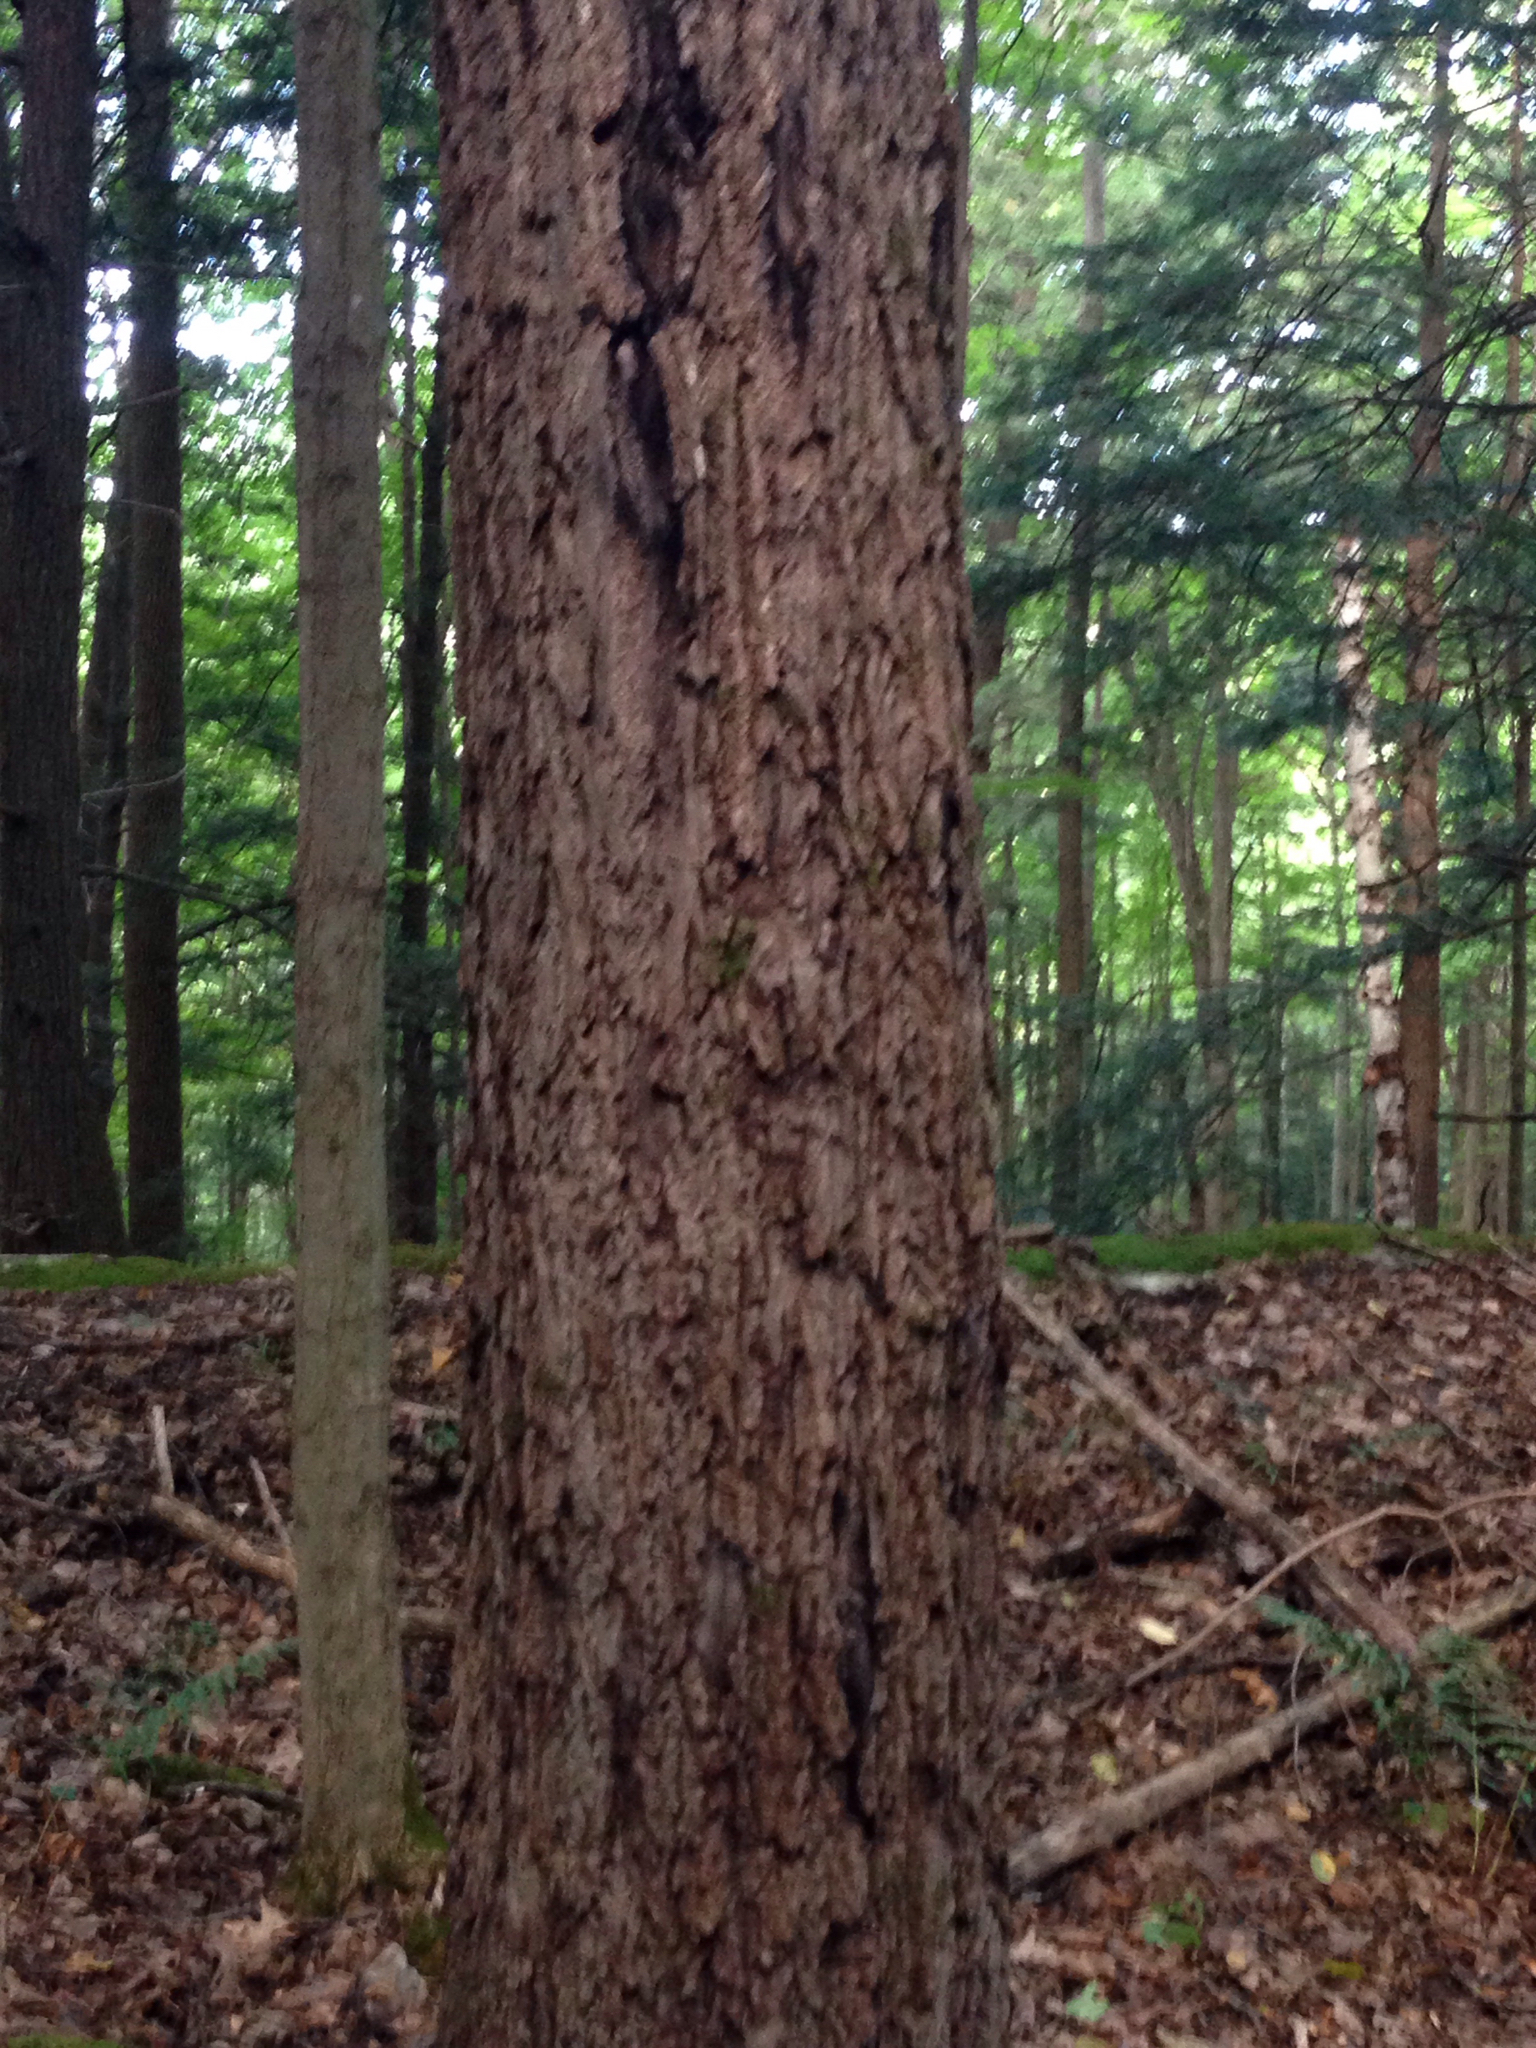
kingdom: Plantae
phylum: Tracheophyta
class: Magnoliopsida
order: Fagales
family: Juglandaceae
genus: Juglans
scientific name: Juglans cinerea
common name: Butternut
